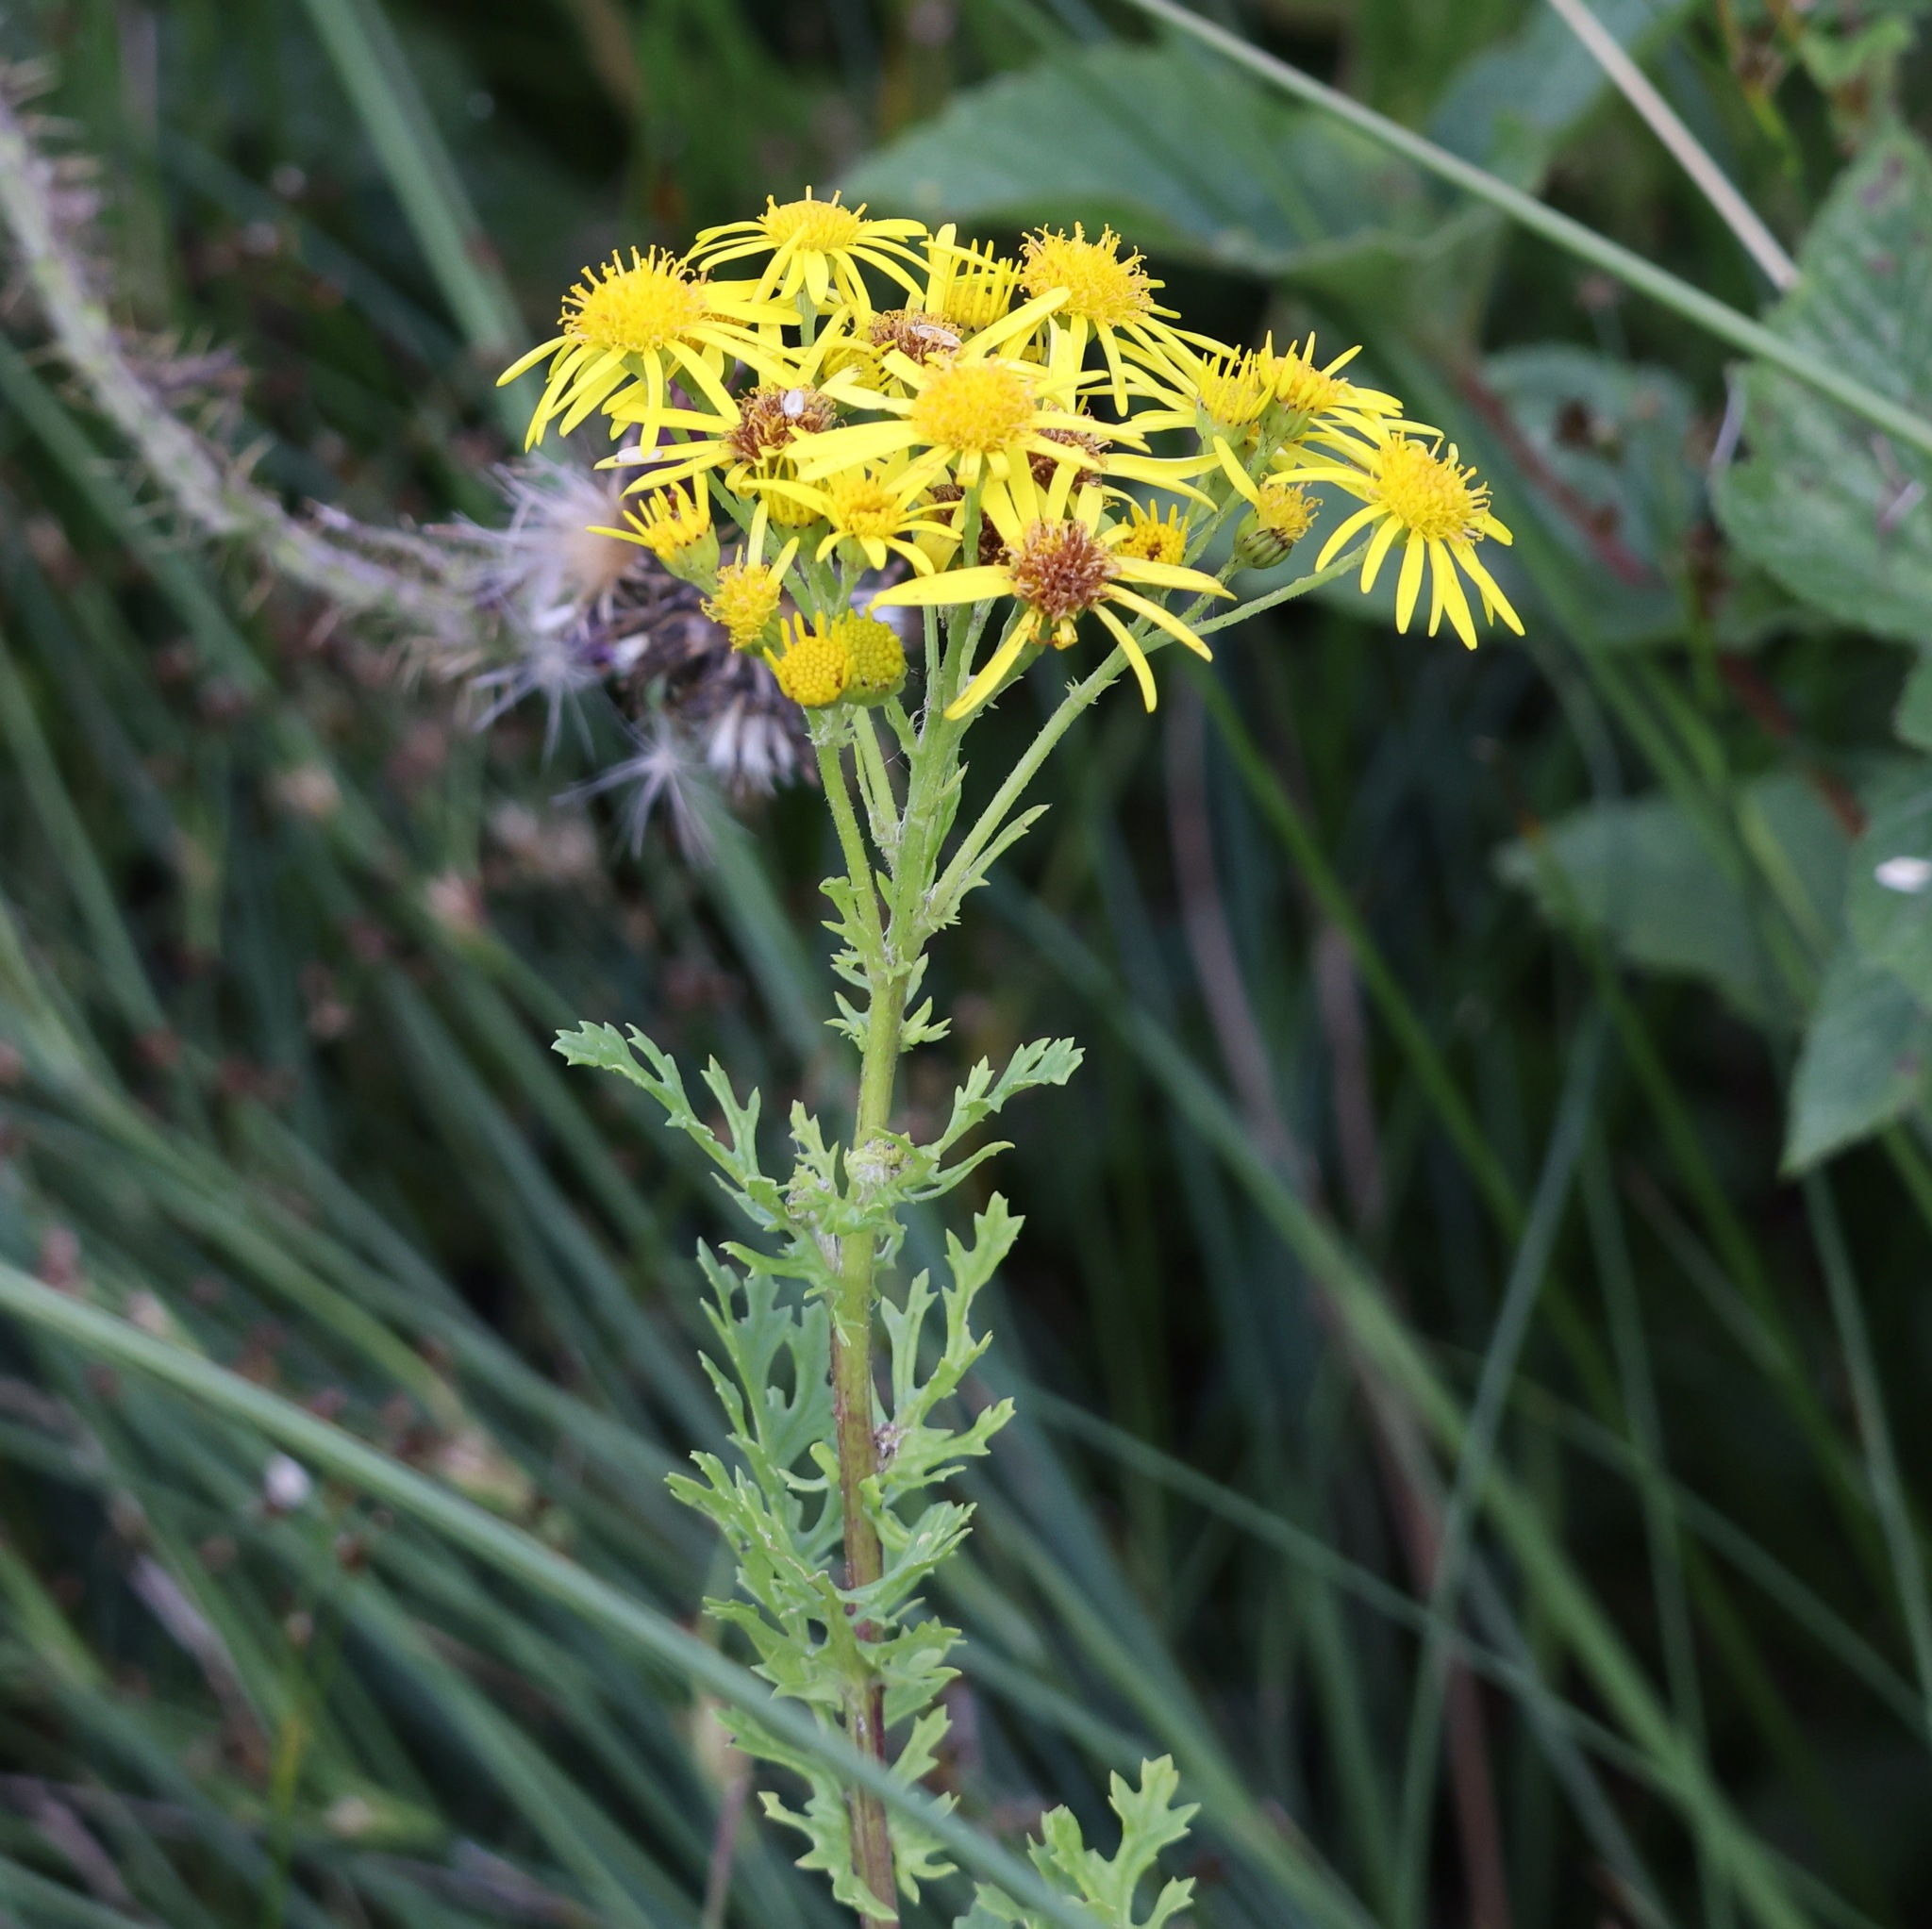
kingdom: Plantae
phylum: Tracheophyta
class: Magnoliopsida
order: Asterales
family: Asteraceae
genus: Jacobaea
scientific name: Jacobaea vulgaris
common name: Stinking willie
